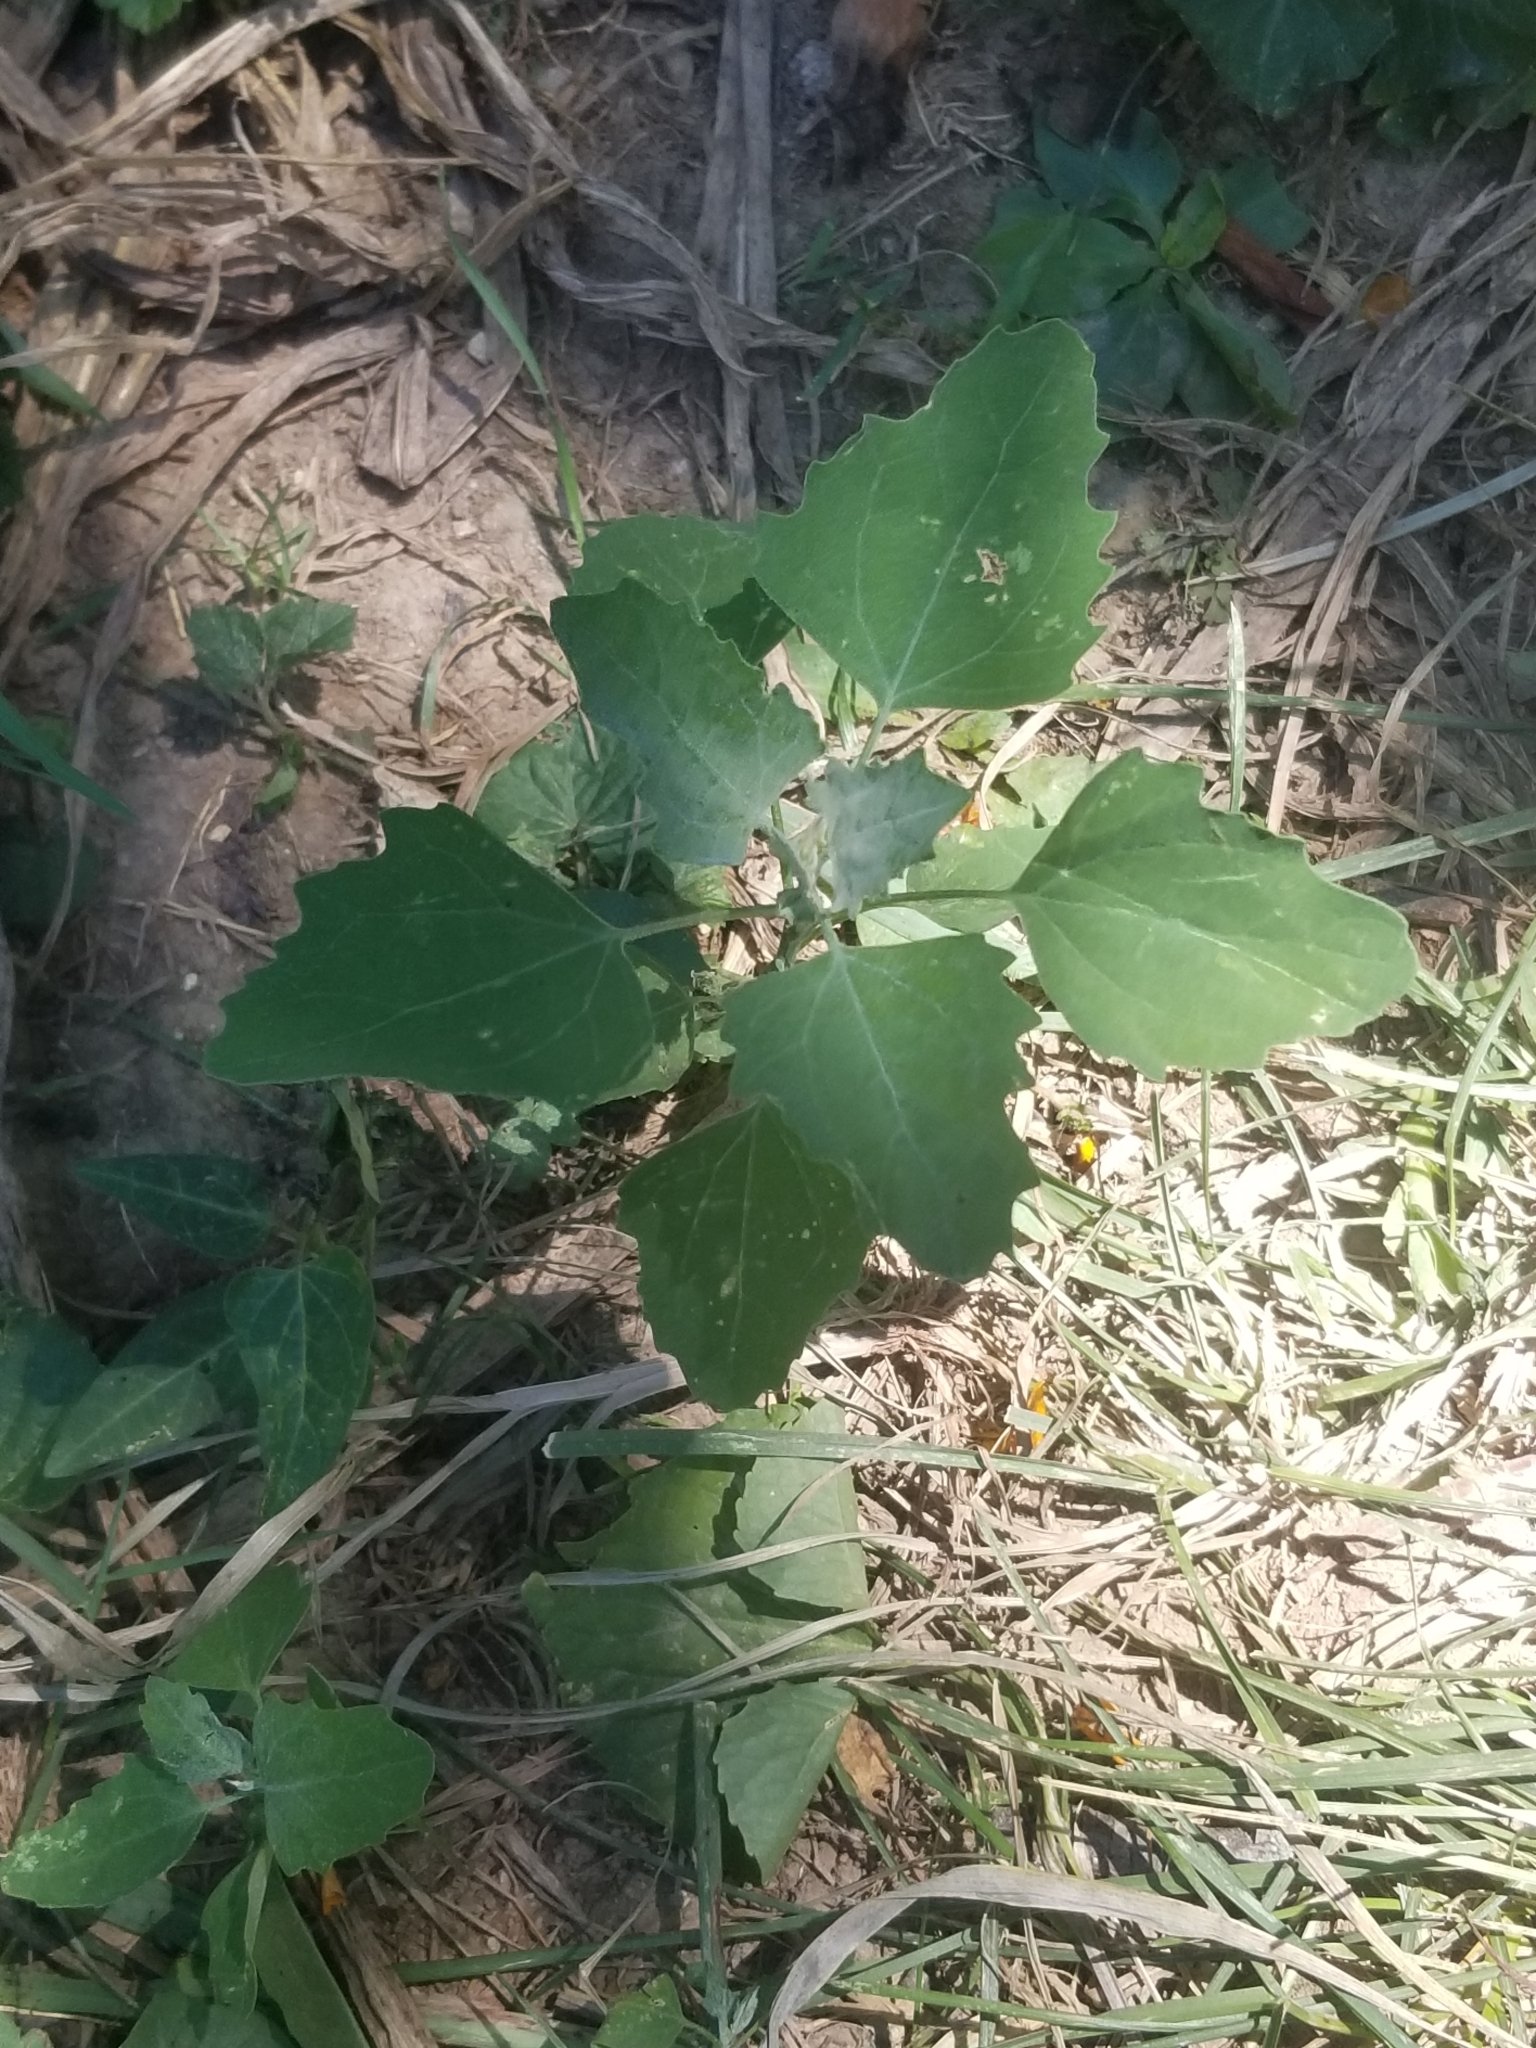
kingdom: Plantae
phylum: Tracheophyta
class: Magnoliopsida
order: Caryophyllales
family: Amaranthaceae
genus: Chenopodium
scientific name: Chenopodium album
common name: Fat-hen
